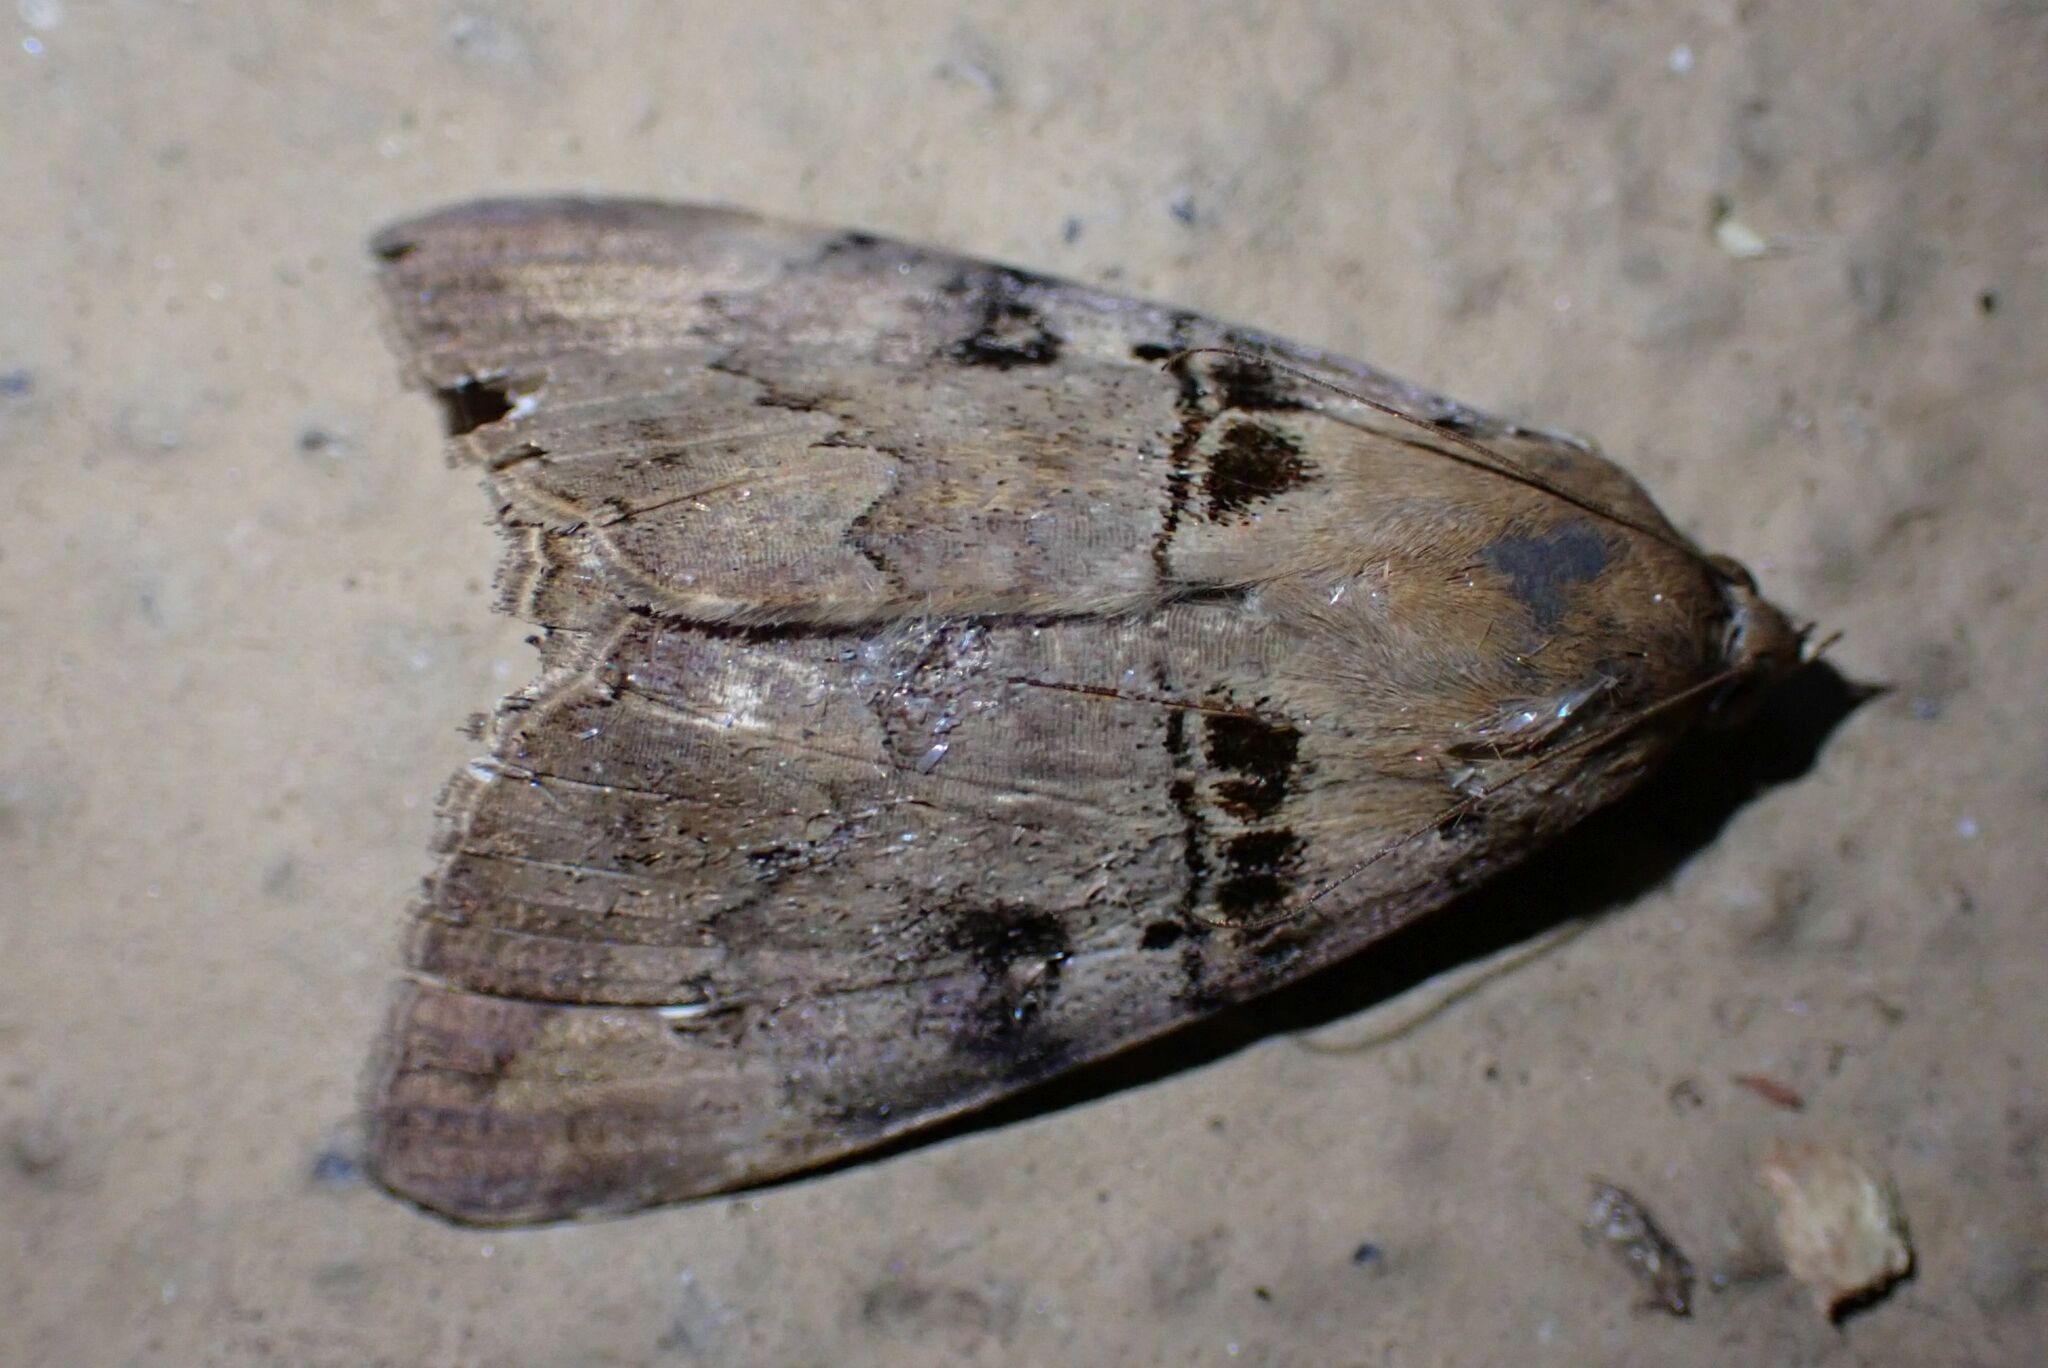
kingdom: Animalia
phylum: Arthropoda
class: Insecta
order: Lepidoptera
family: Erebidae
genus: Achaea
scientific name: Achaea lienardi
